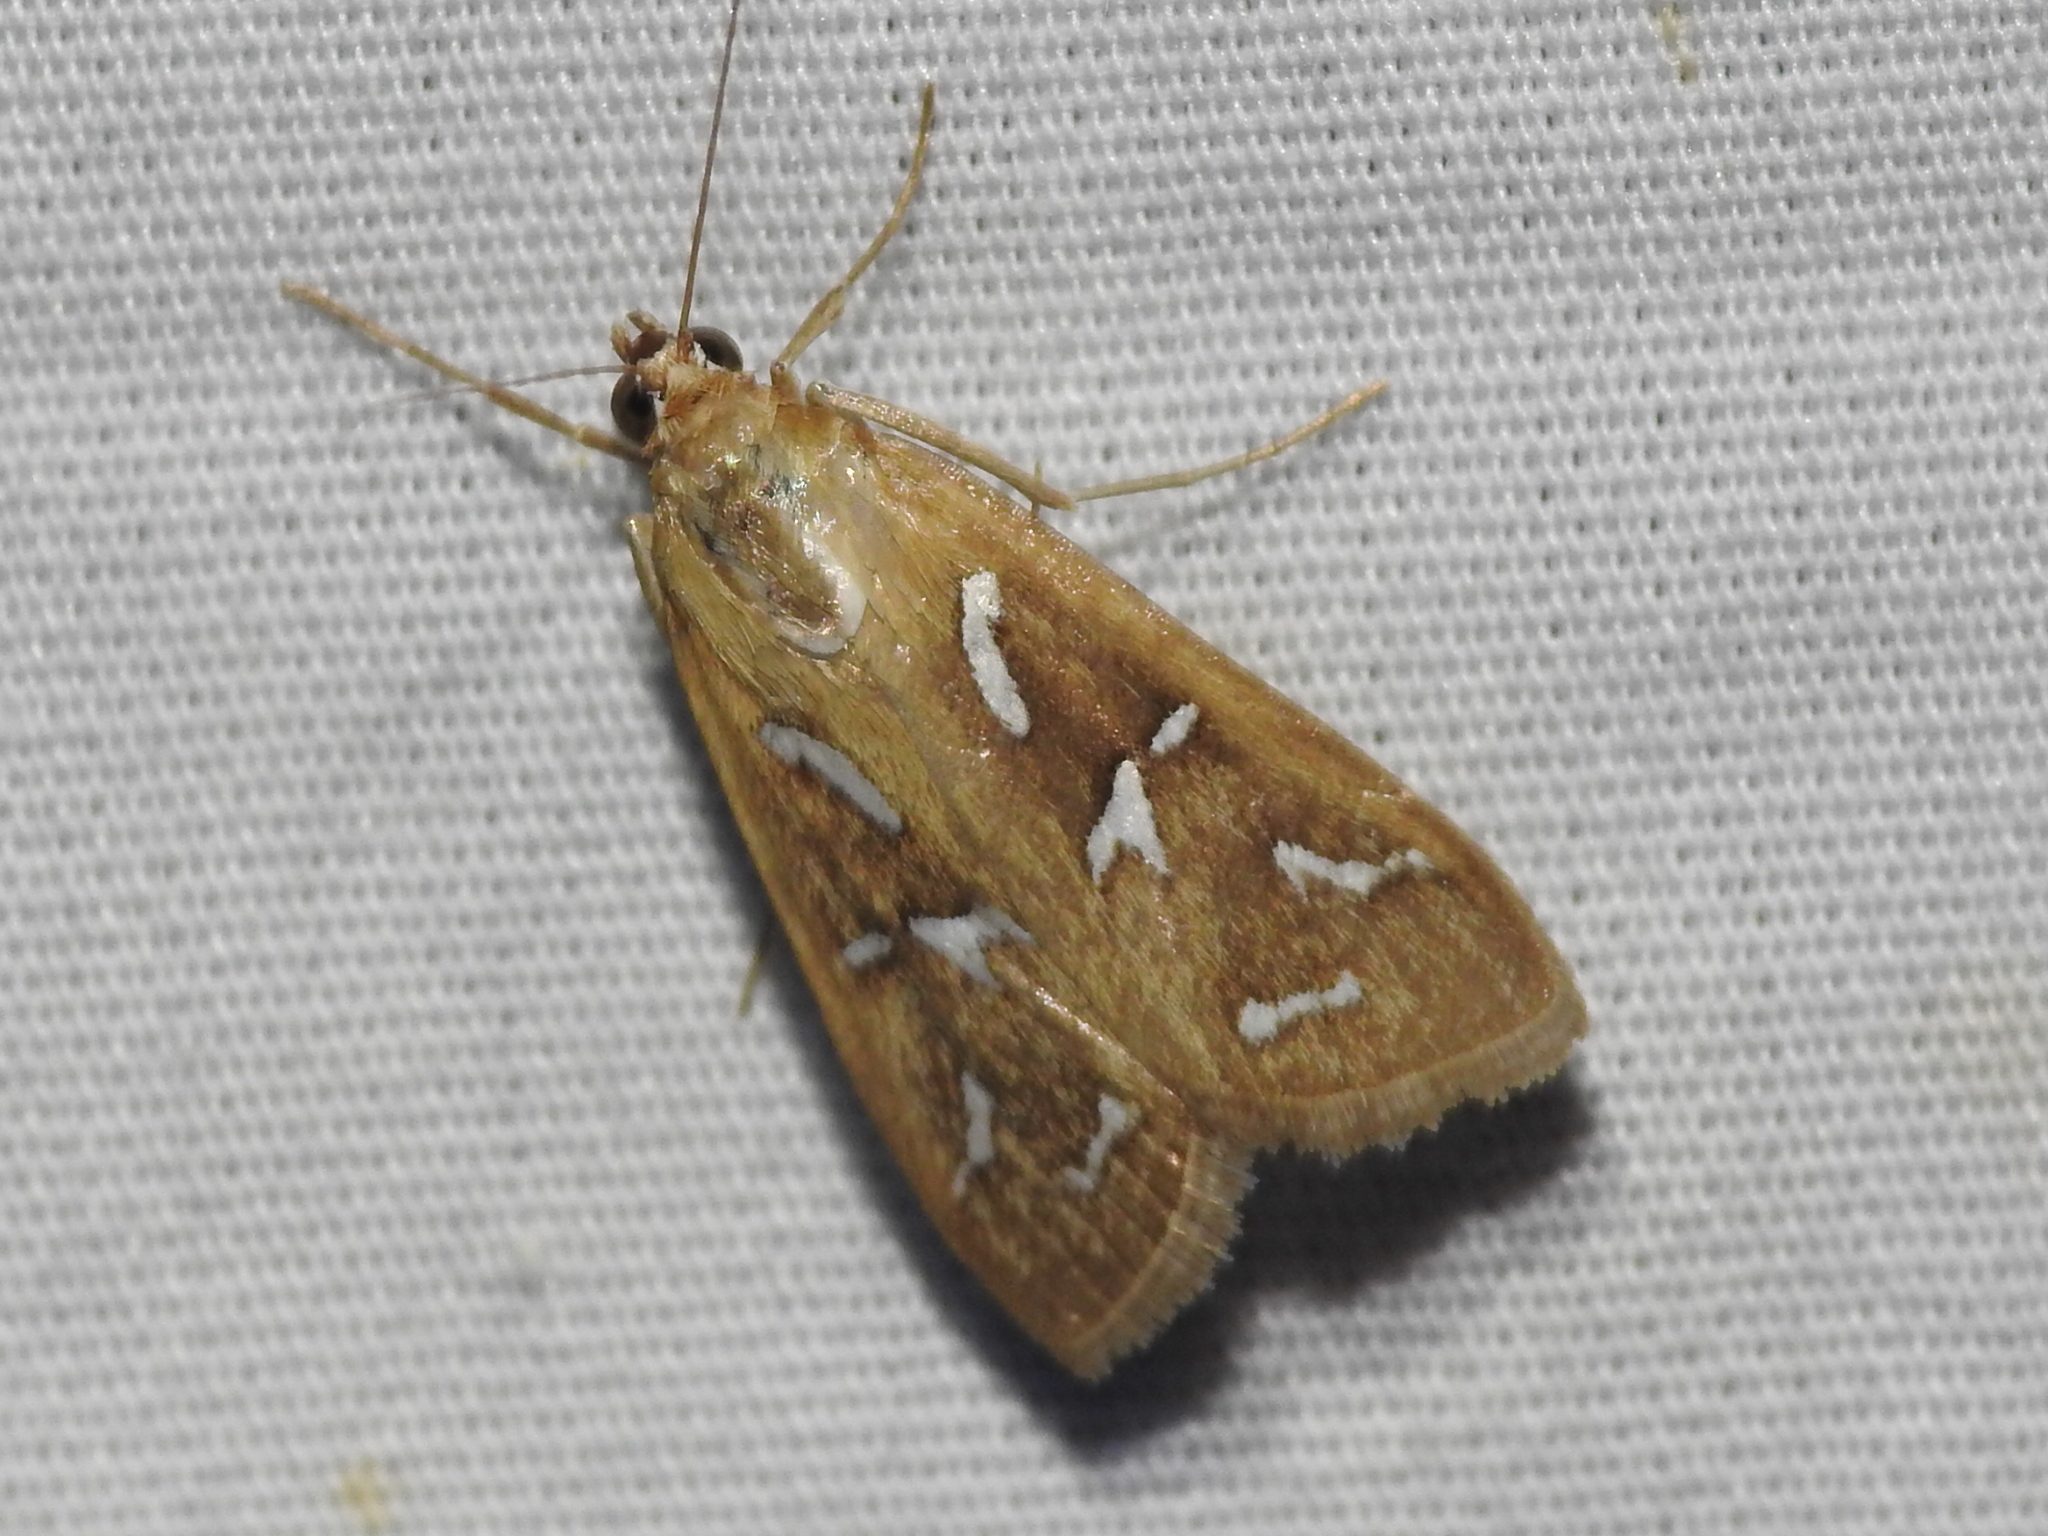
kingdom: Animalia
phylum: Arthropoda
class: Insecta
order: Lepidoptera
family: Crambidae
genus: Diastictis
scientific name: Diastictis fracturalis
